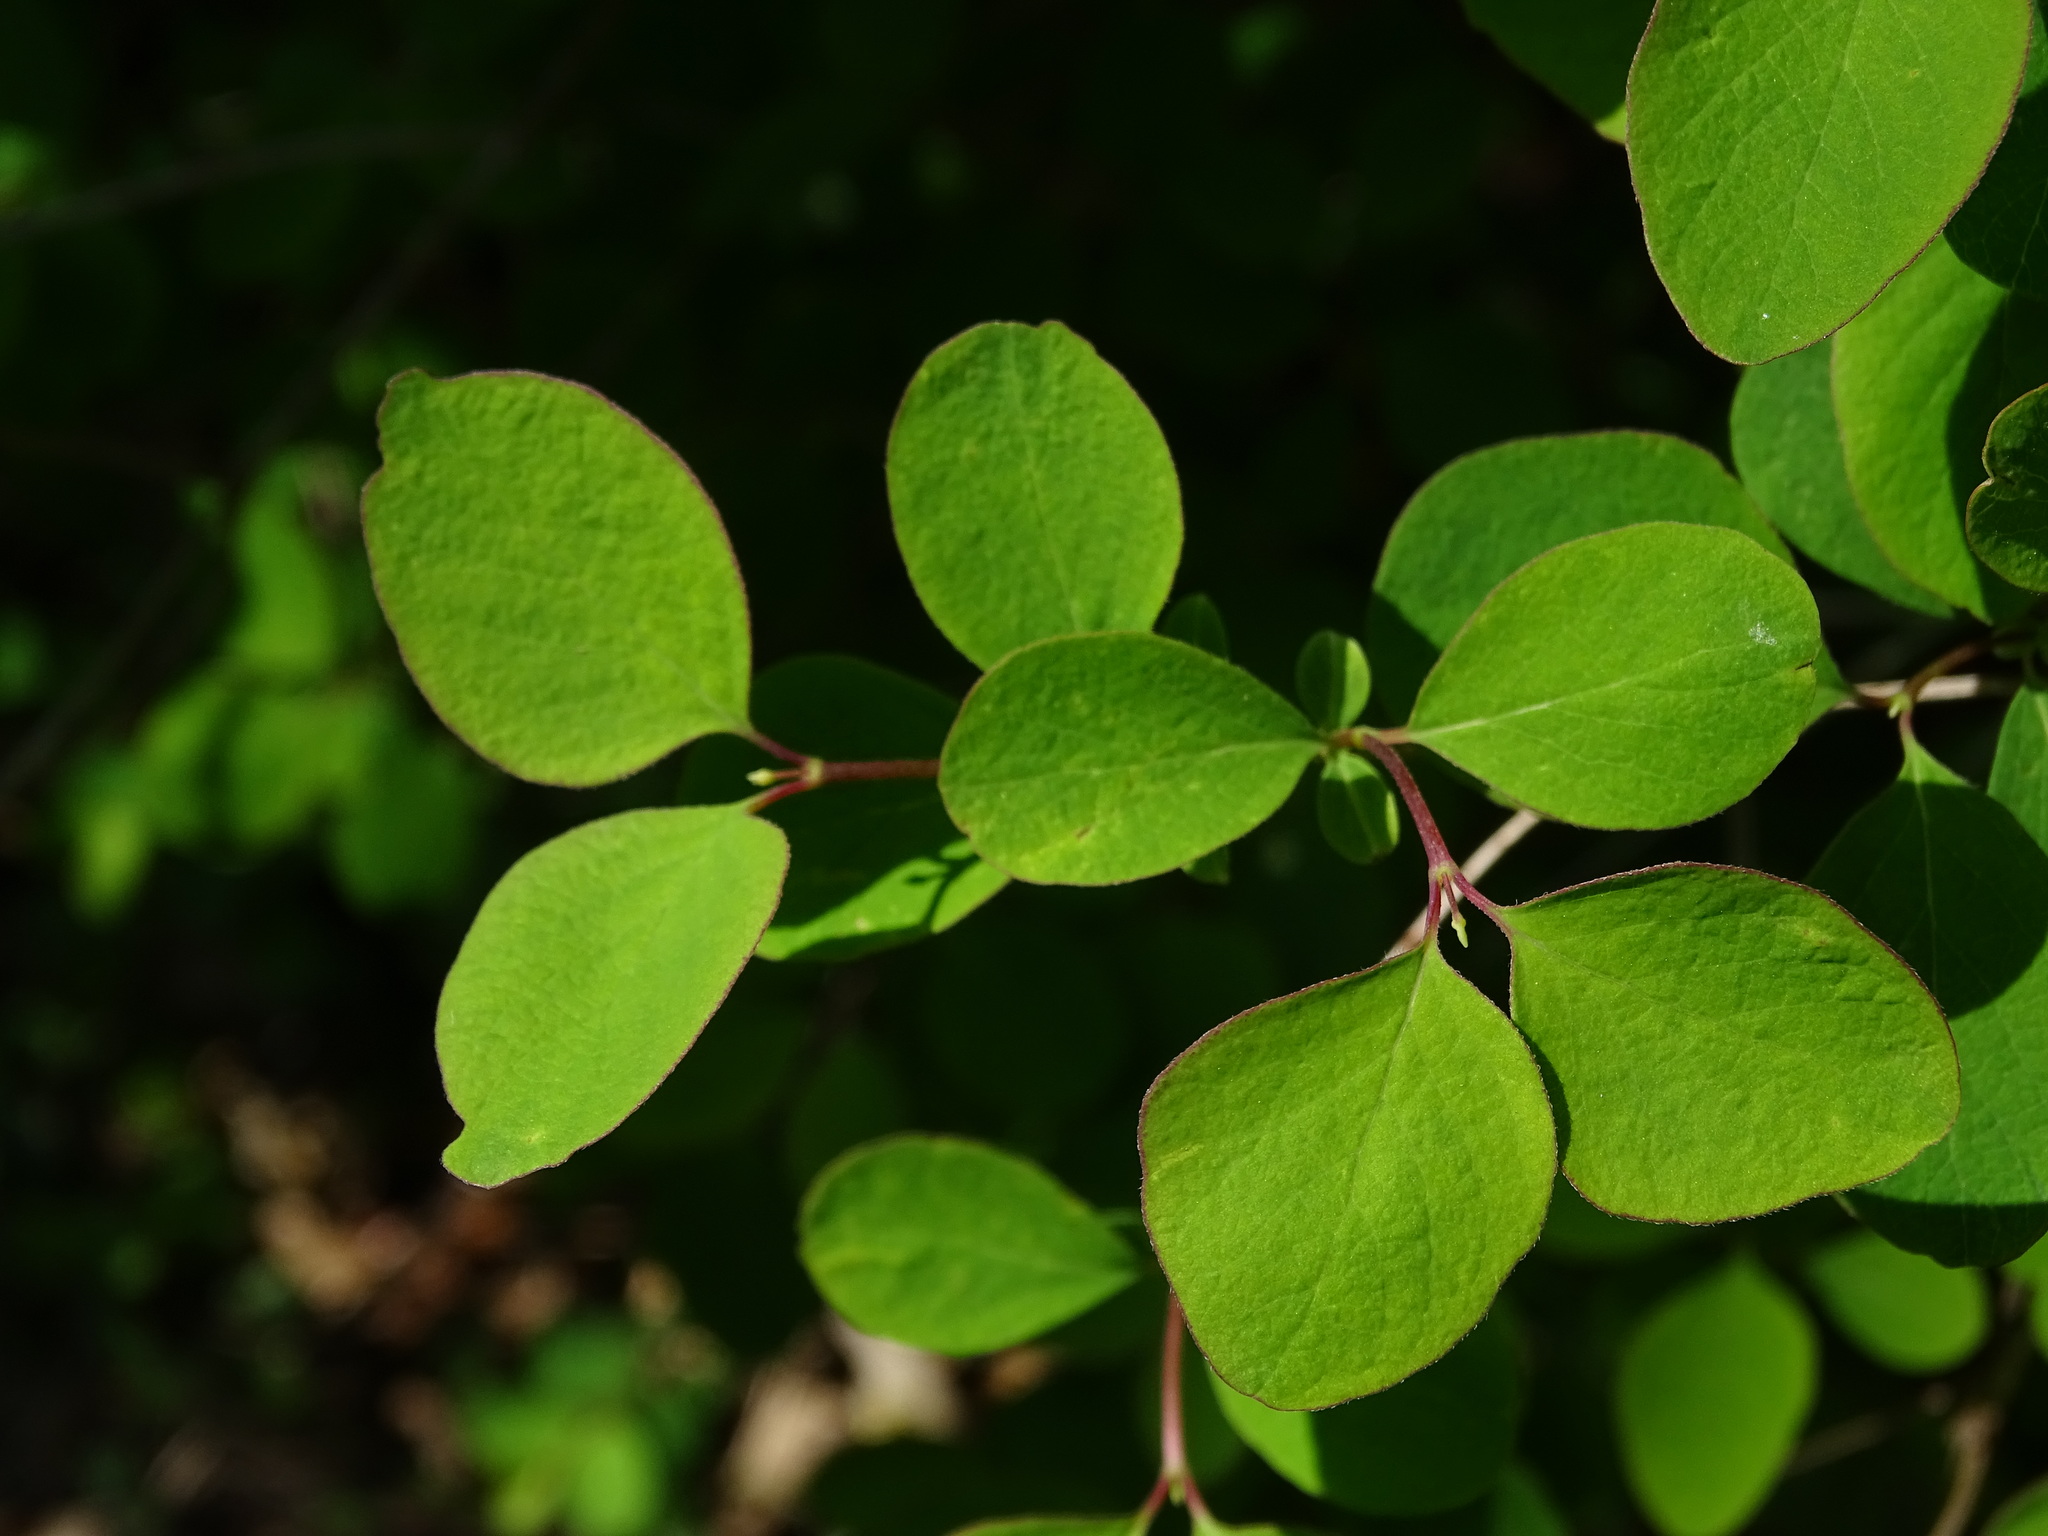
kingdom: Plantae
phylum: Tracheophyta
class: Magnoliopsida
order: Dipsacales
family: Caprifoliaceae
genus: Symphoricarpos
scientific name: Symphoricarpos albus
